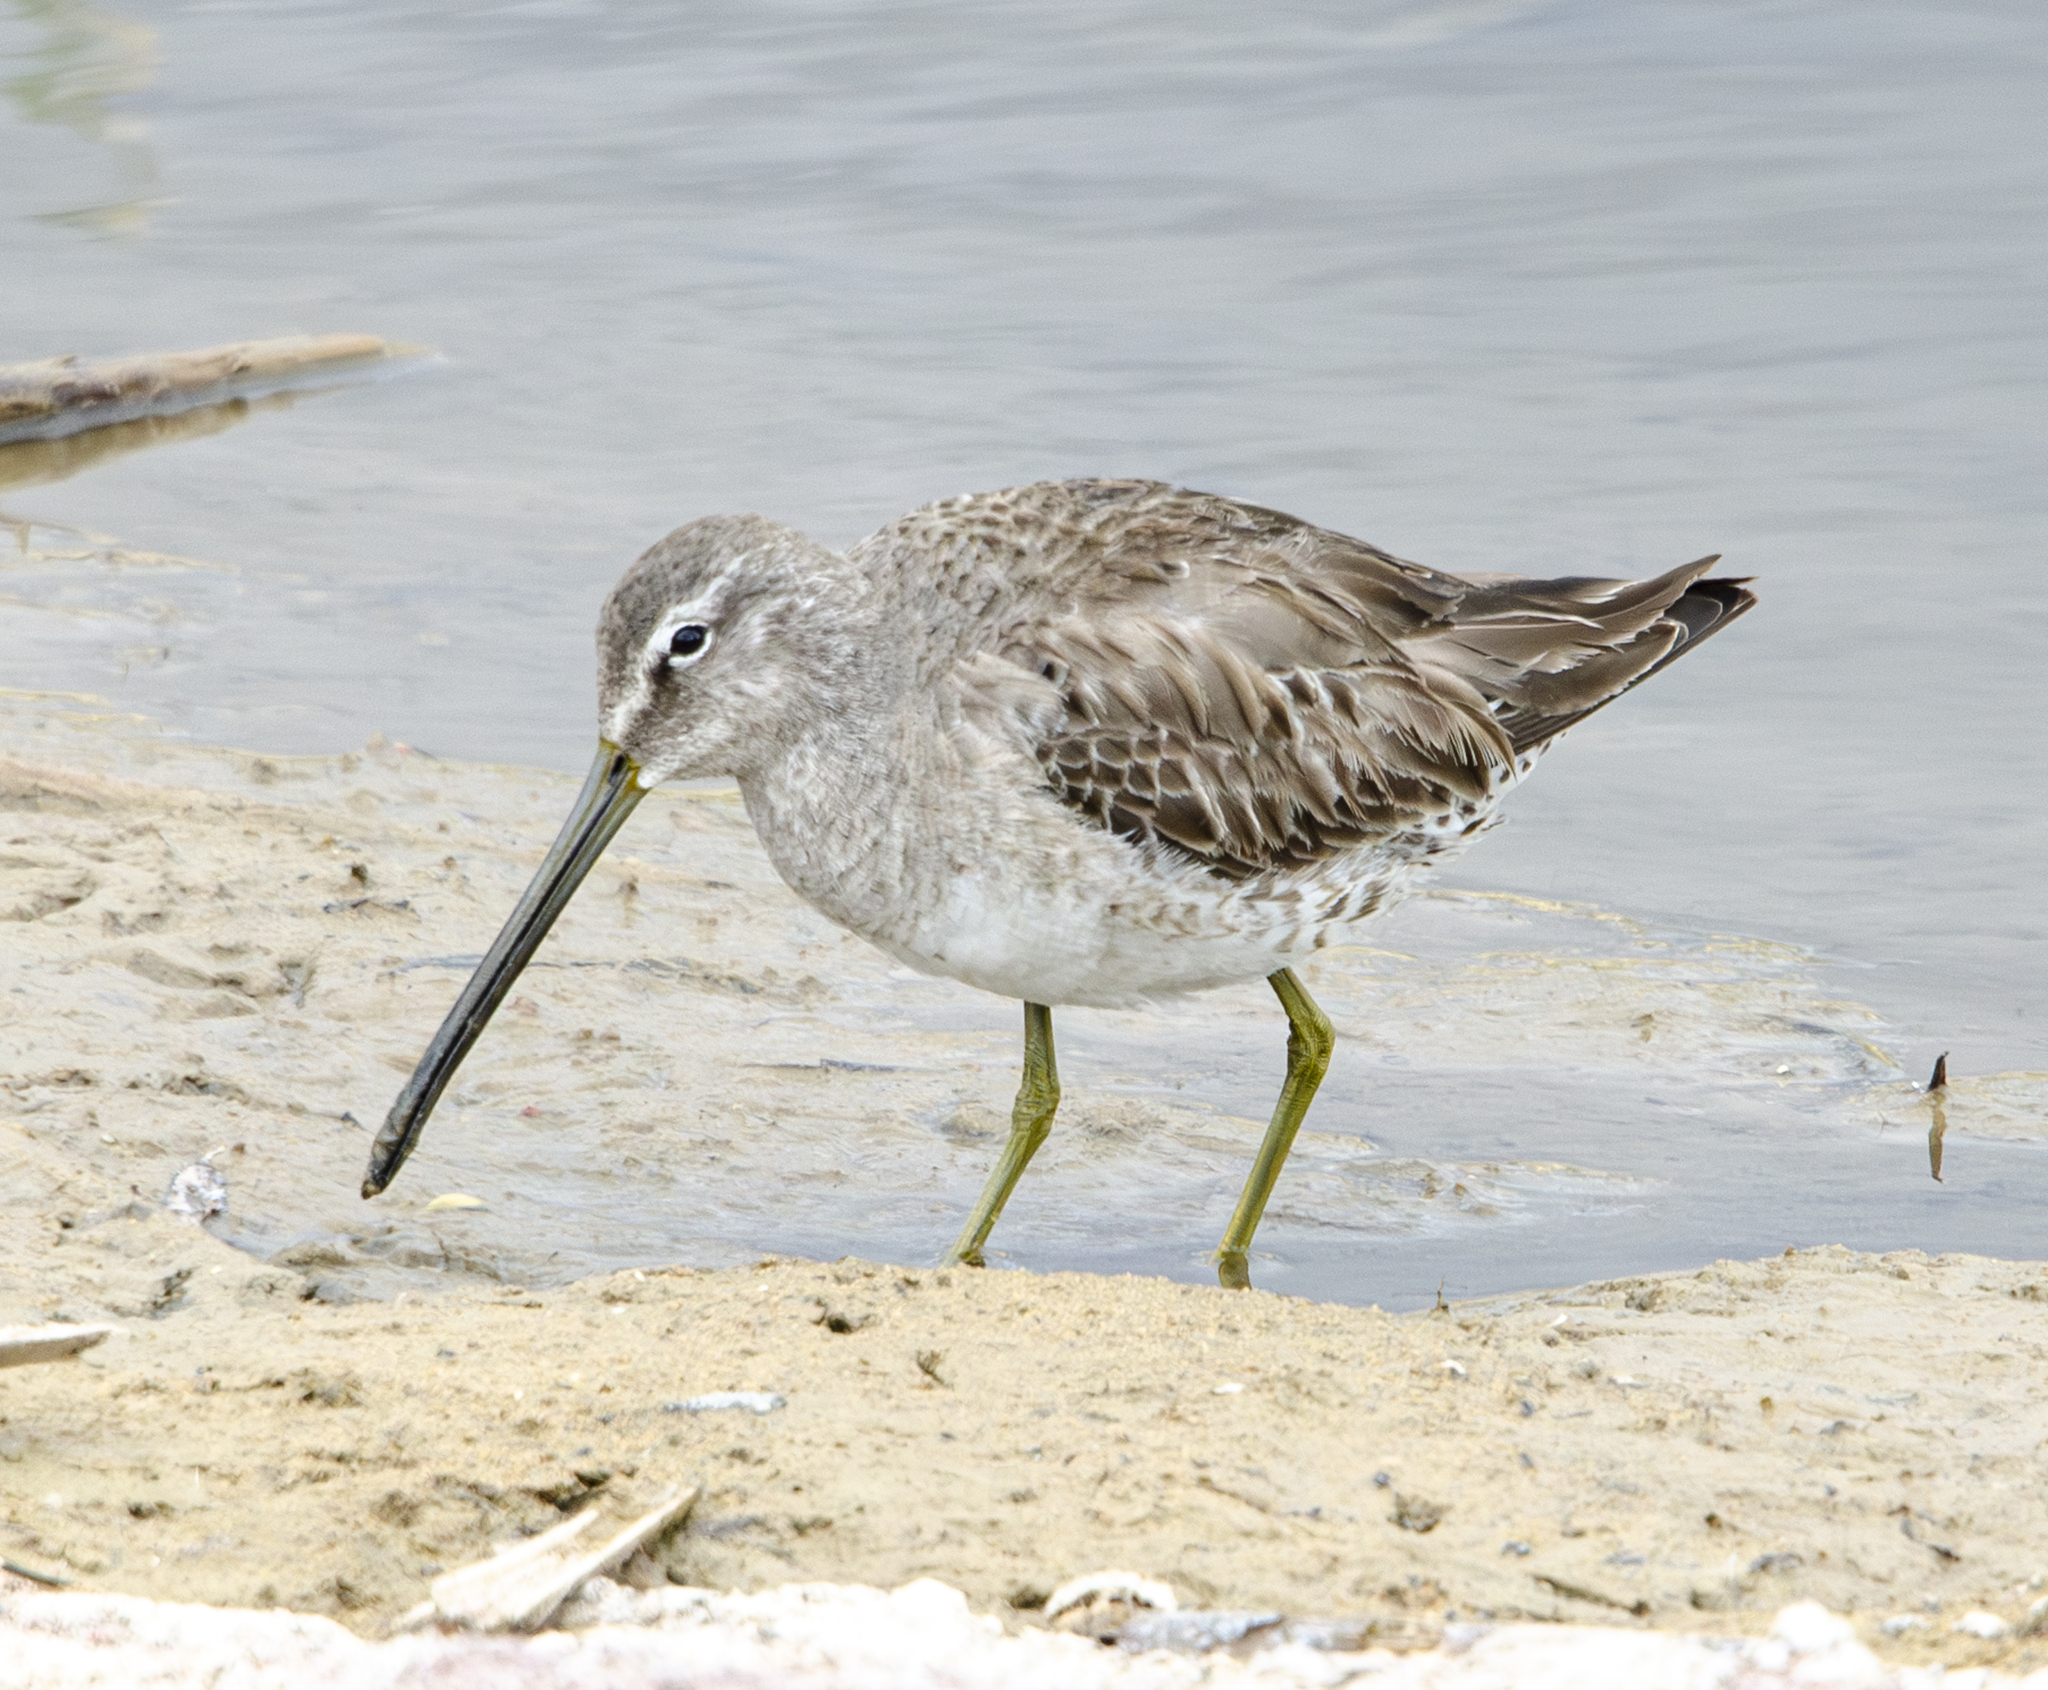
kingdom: Animalia
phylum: Chordata
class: Aves
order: Charadriiformes
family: Scolopacidae
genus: Limnodromus
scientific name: Limnodromus scolopaceus
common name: Long-billed dowitcher
